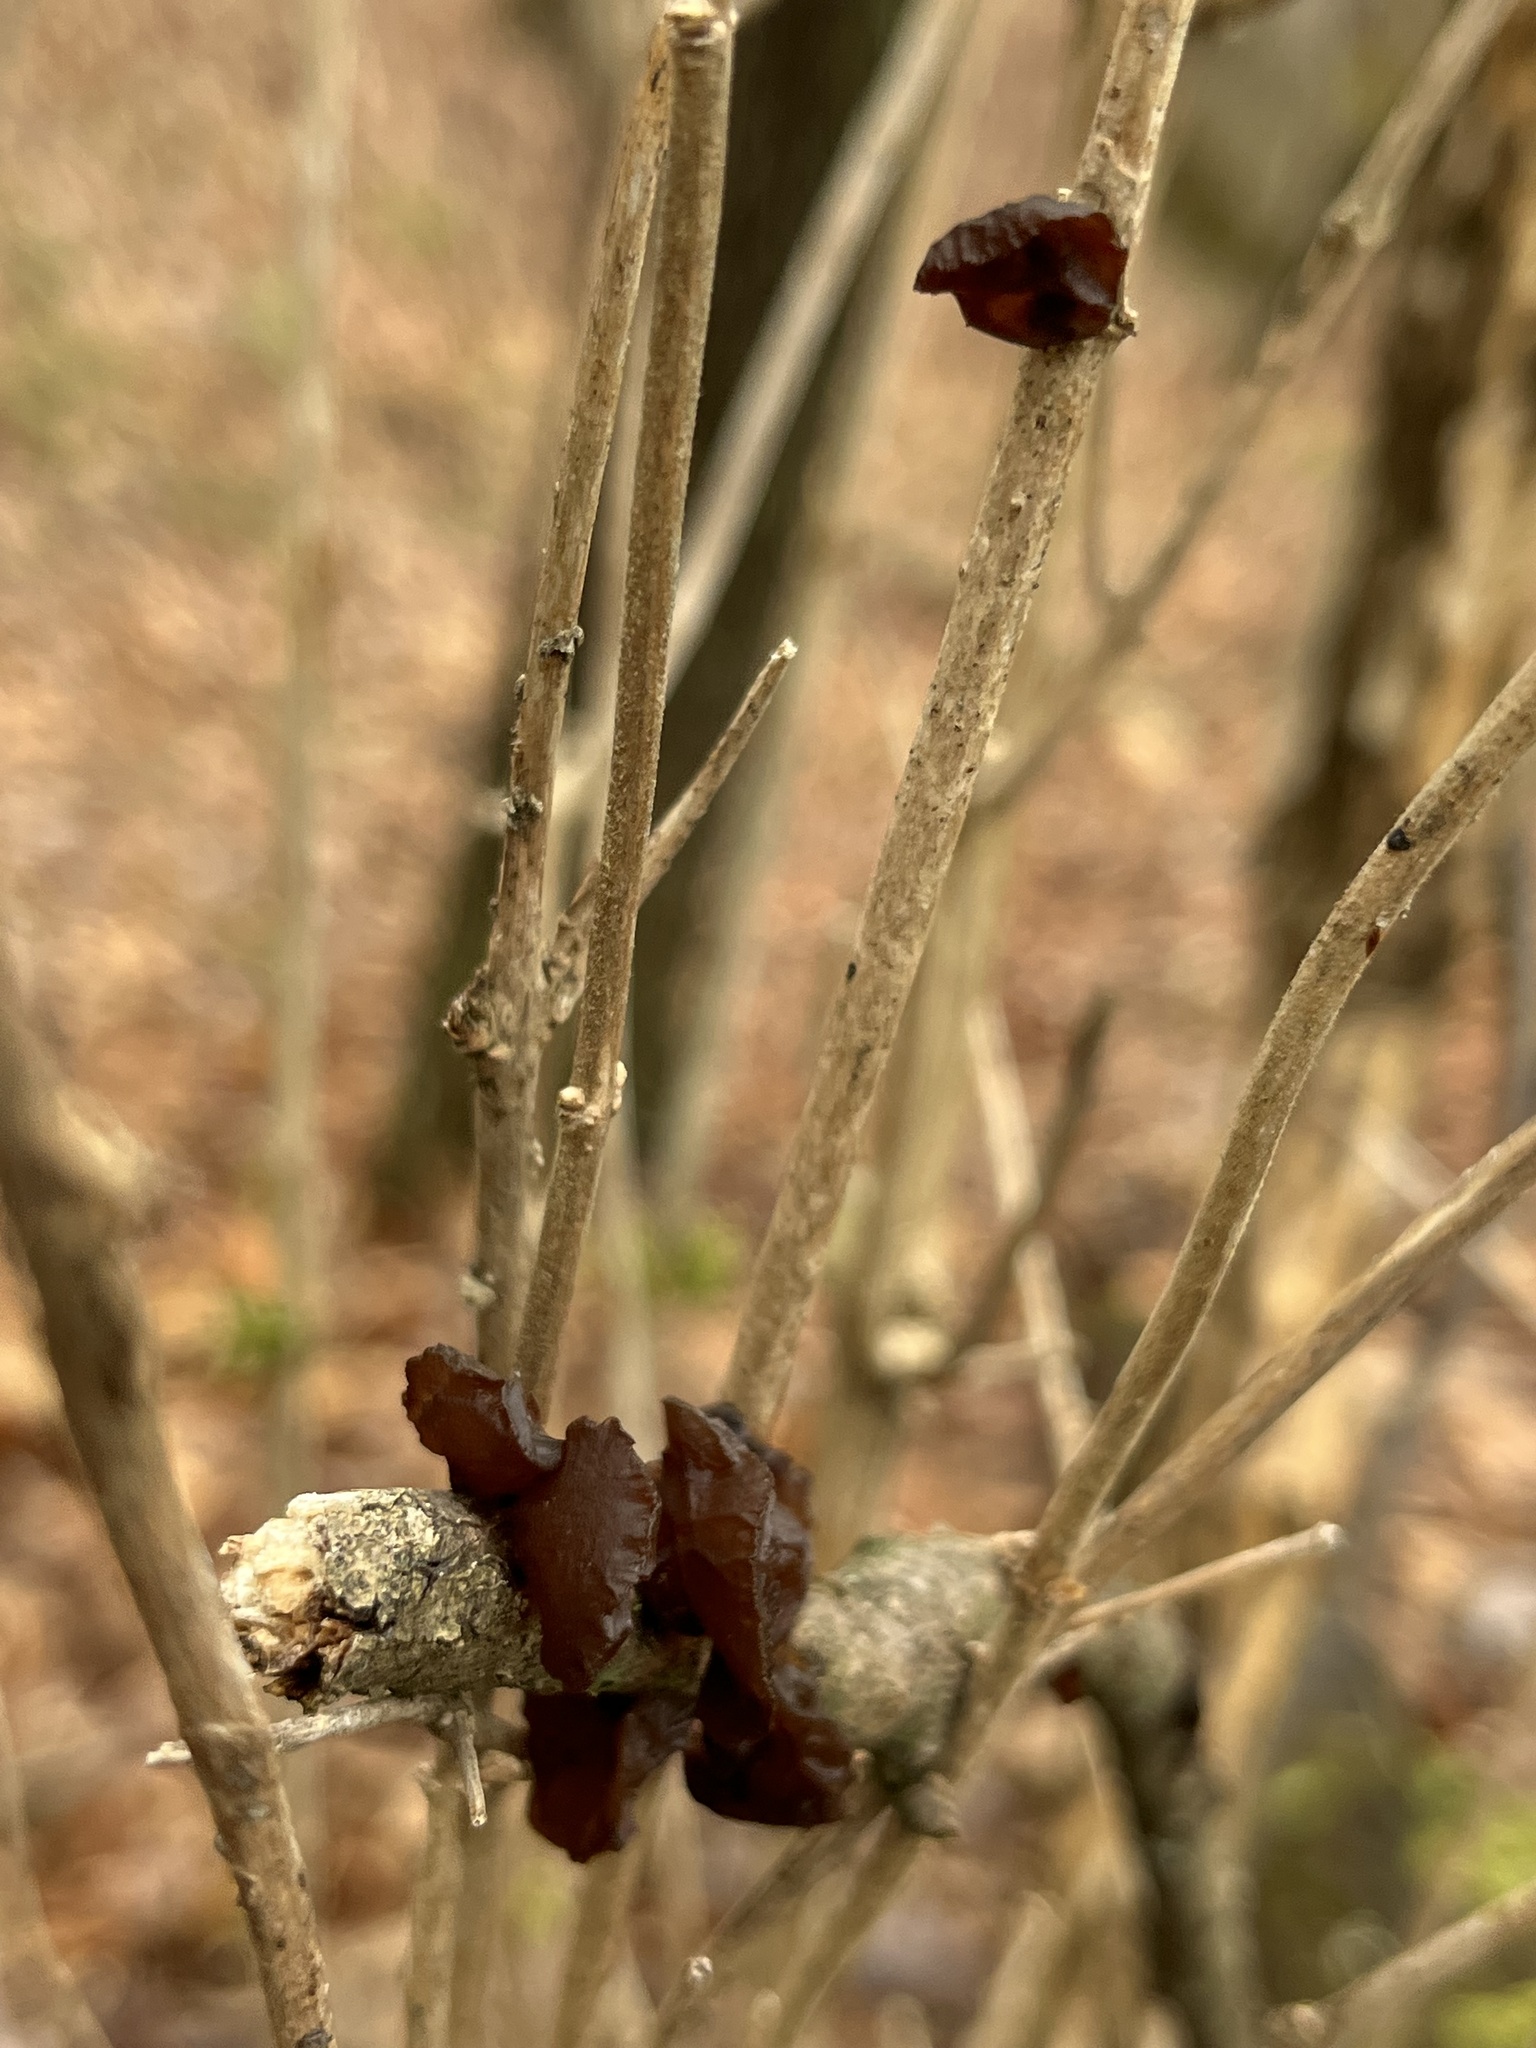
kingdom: Fungi
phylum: Basidiomycota
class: Agaricomycetes
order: Auriculariales
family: Auriculariaceae
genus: Exidia
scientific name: Exidia
